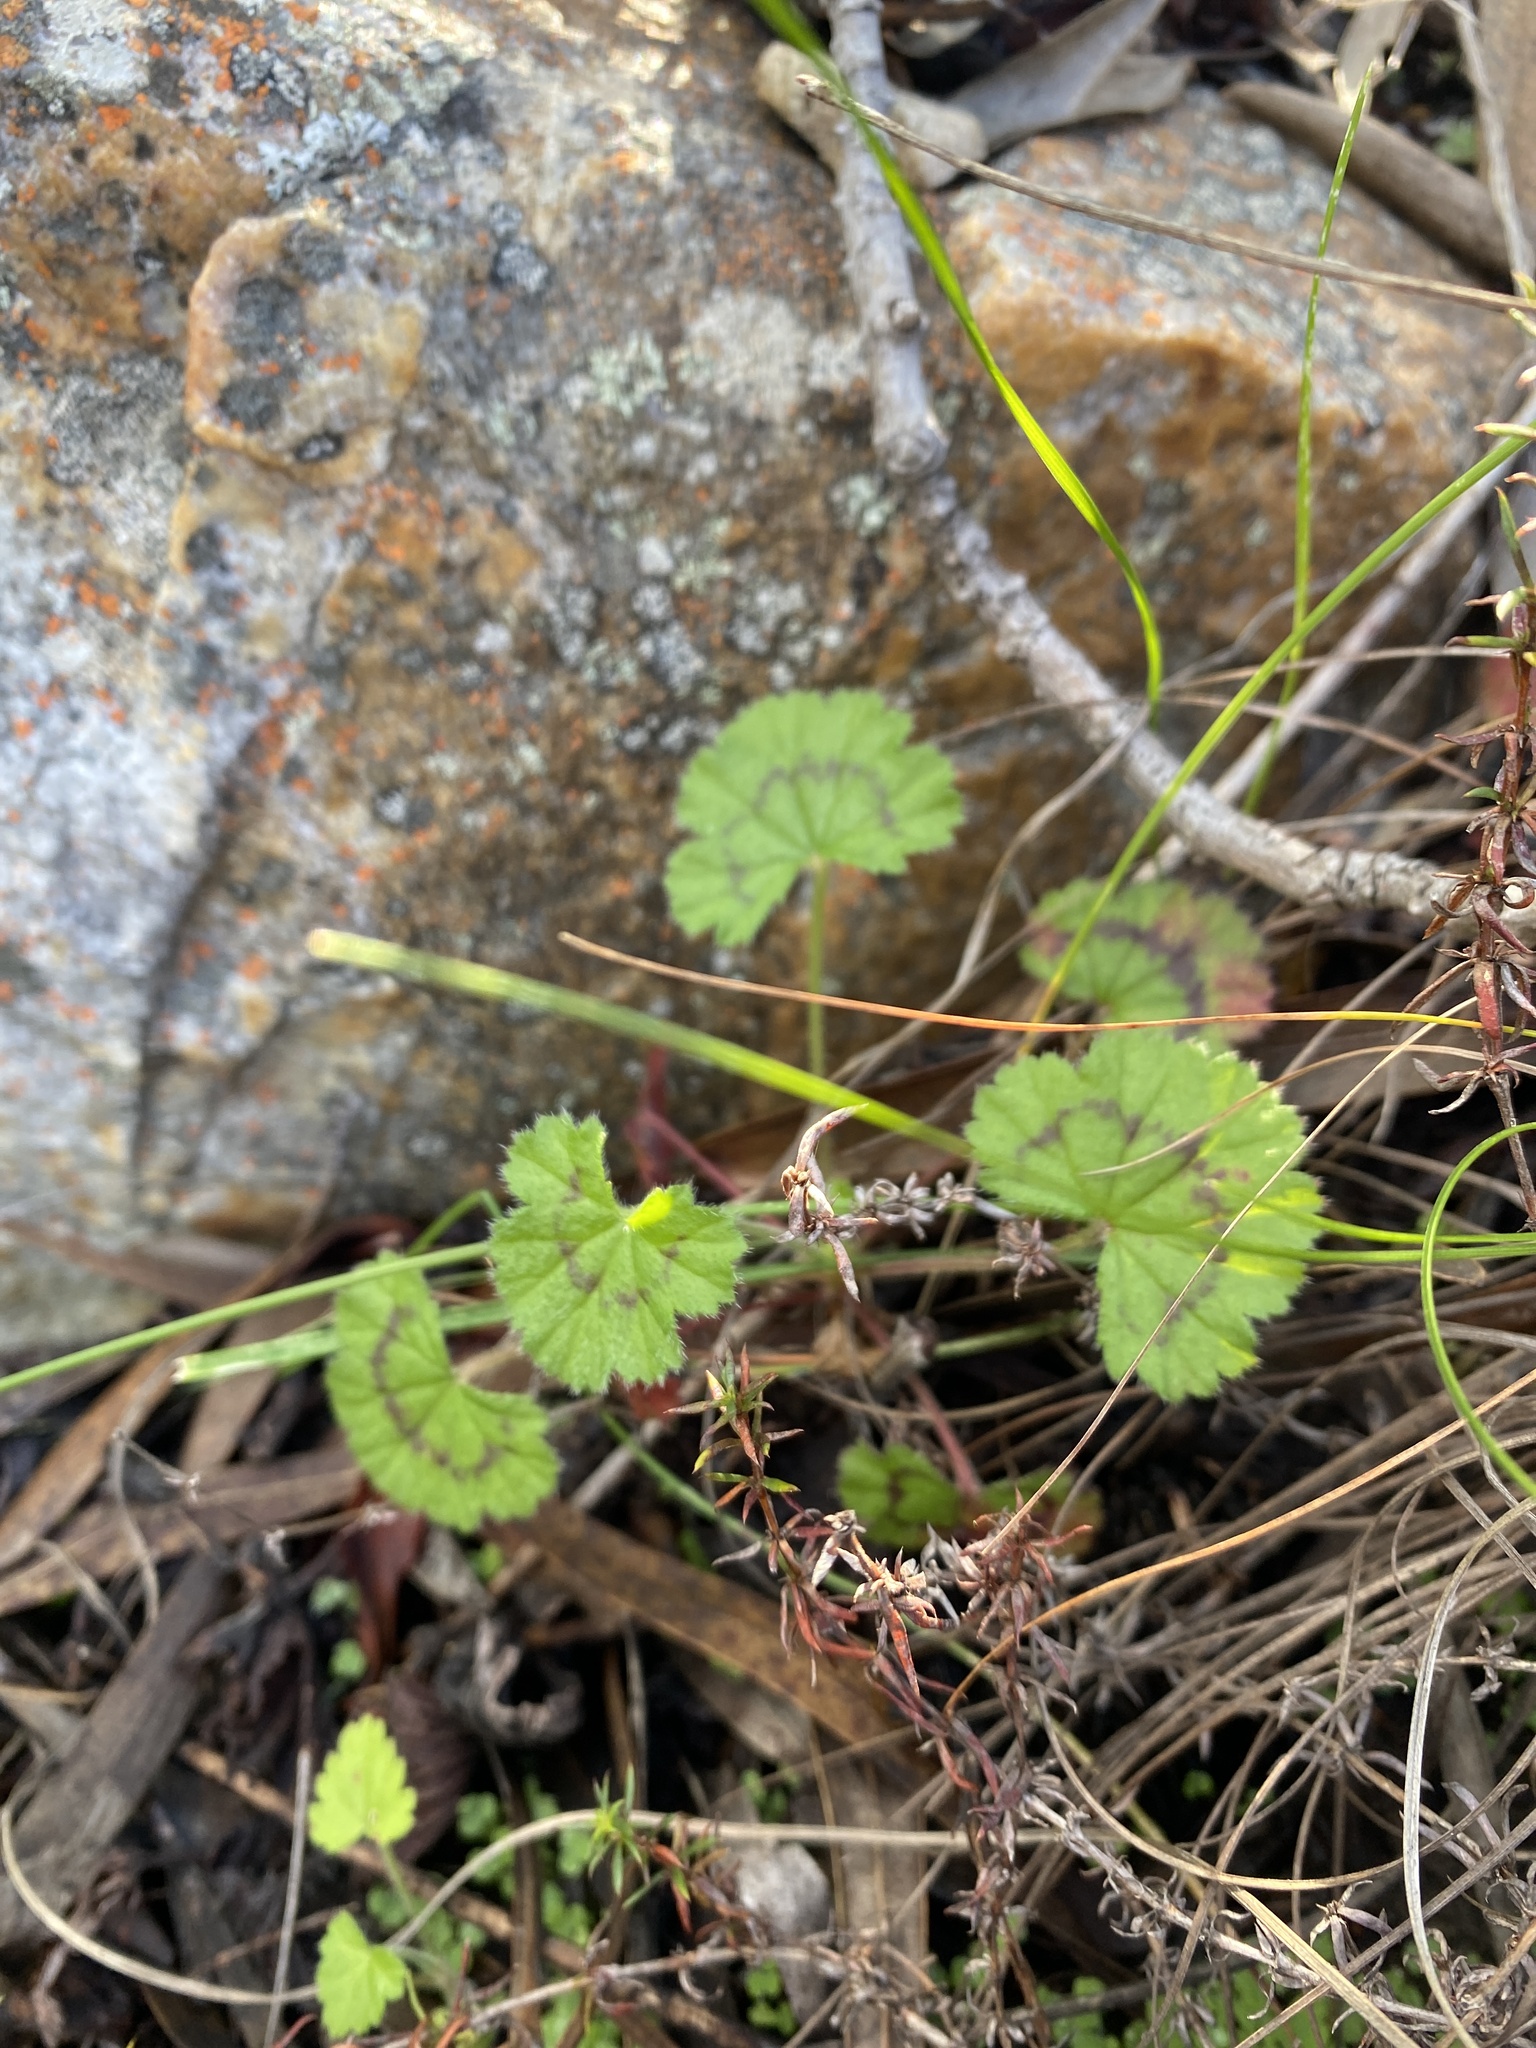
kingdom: Plantae
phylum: Tracheophyta
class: Magnoliopsida
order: Geraniales
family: Geraniaceae
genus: Pelargonium
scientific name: Pelargonium elongatum
